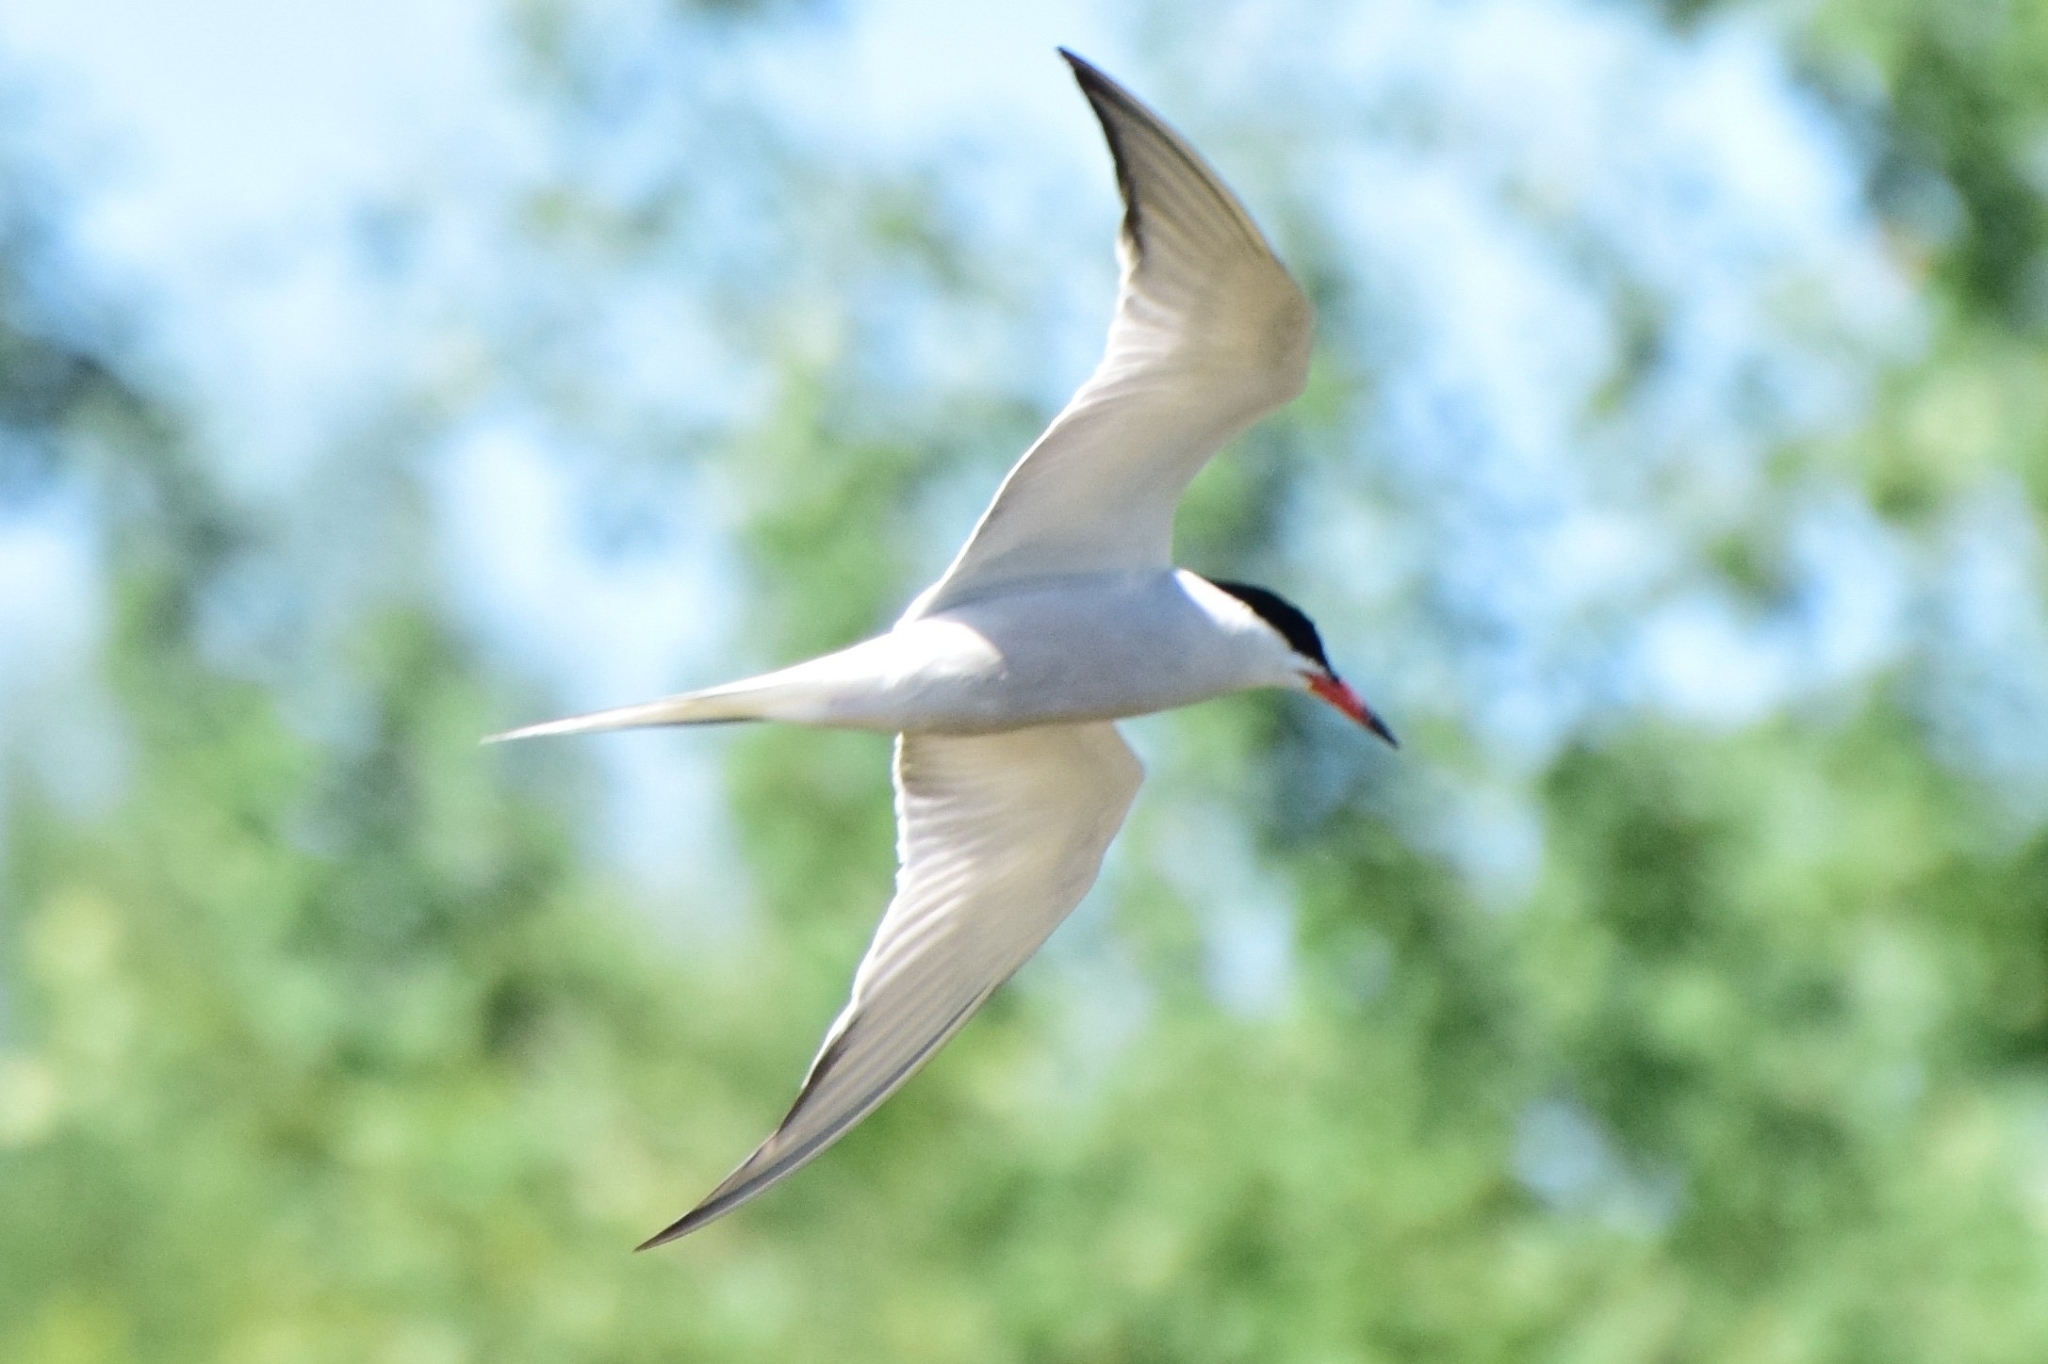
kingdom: Animalia
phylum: Chordata
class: Aves
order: Charadriiformes
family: Laridae
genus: Sterna
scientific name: Sterna hirundo
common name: Common tern
